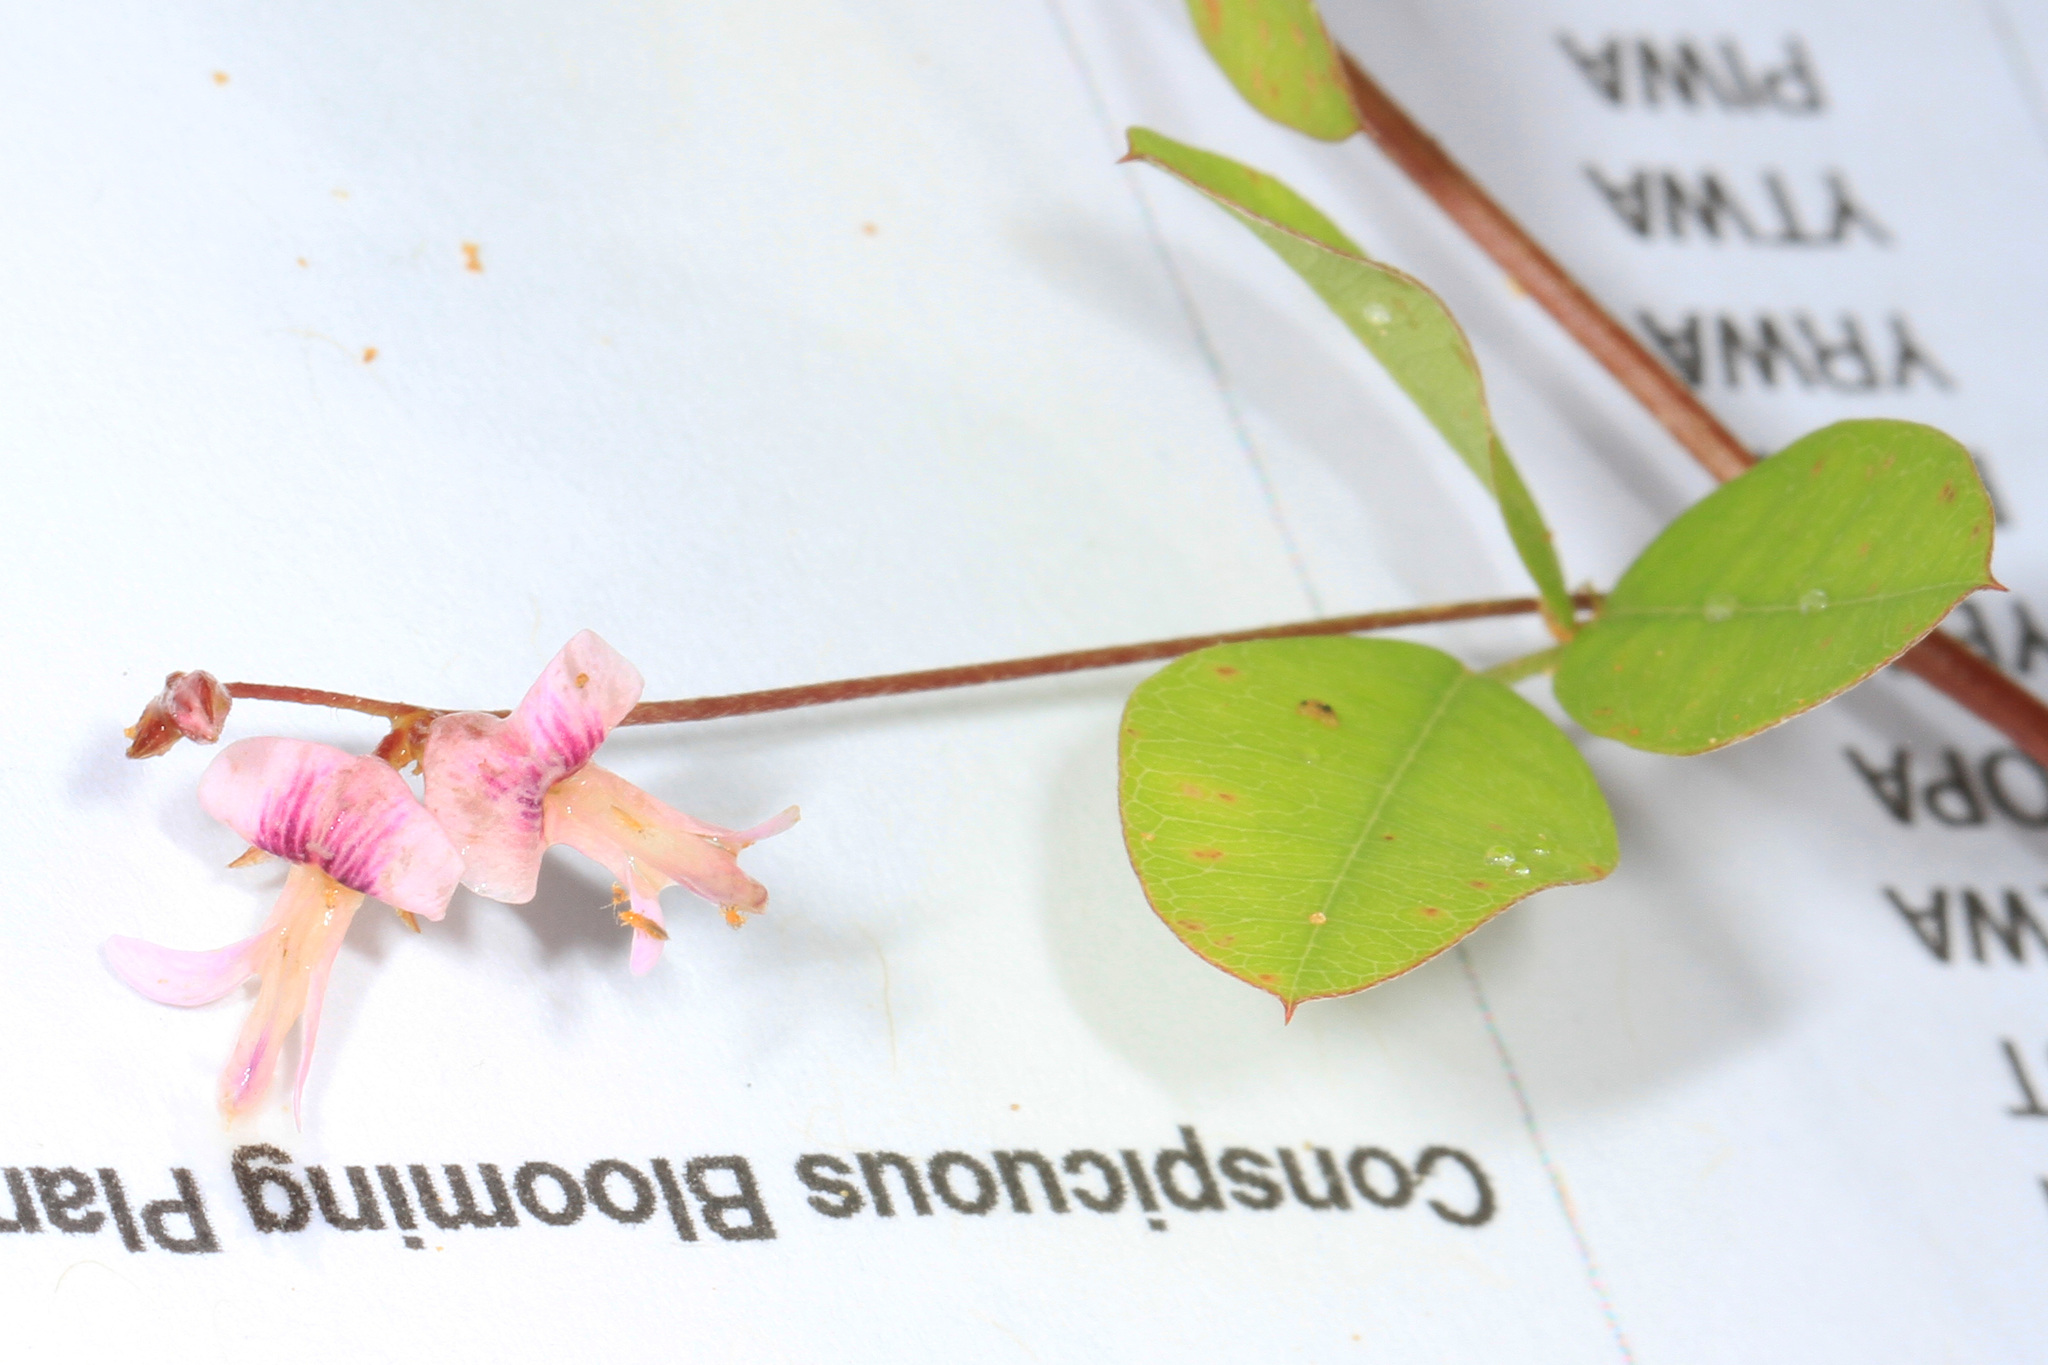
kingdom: Plantae
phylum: Tracheophyta
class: Magnoliopsida
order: Fabales
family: Fabaceae
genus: Lespedeza
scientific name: Lespedeza repens
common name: Creeping bush-clover
